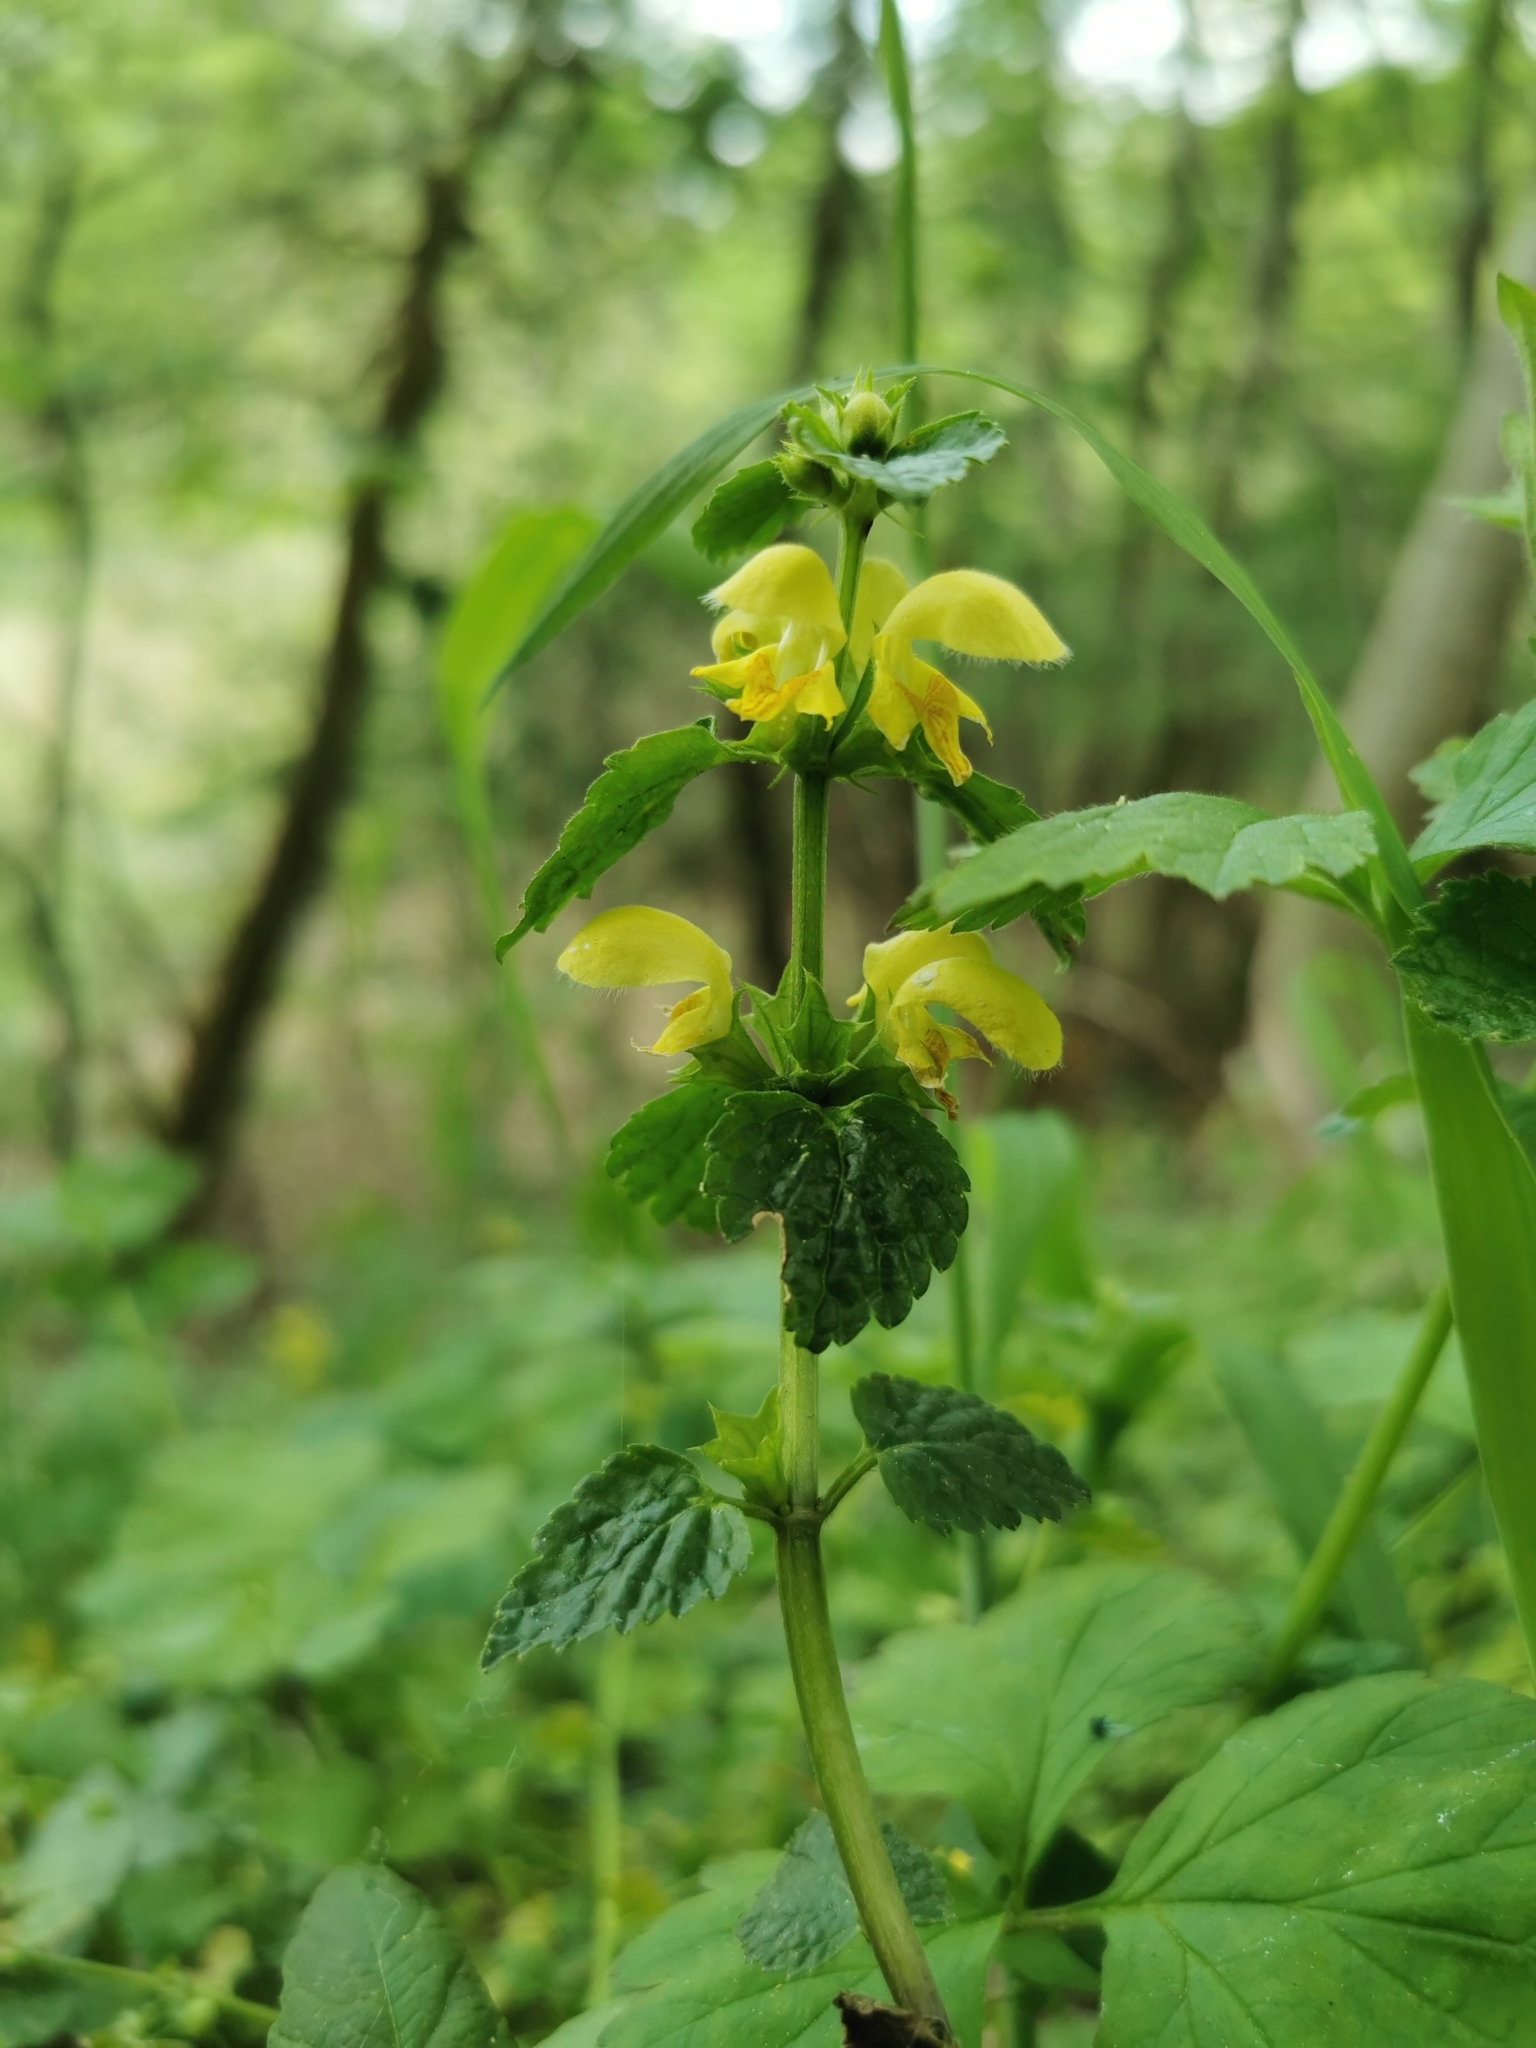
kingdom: Plantae
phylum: Tracheophyta
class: Magnoliopsida
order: Lamiales
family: Lamiaceae
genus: Lamium
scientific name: Lamium galeobdolon
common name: Yellow archangel
